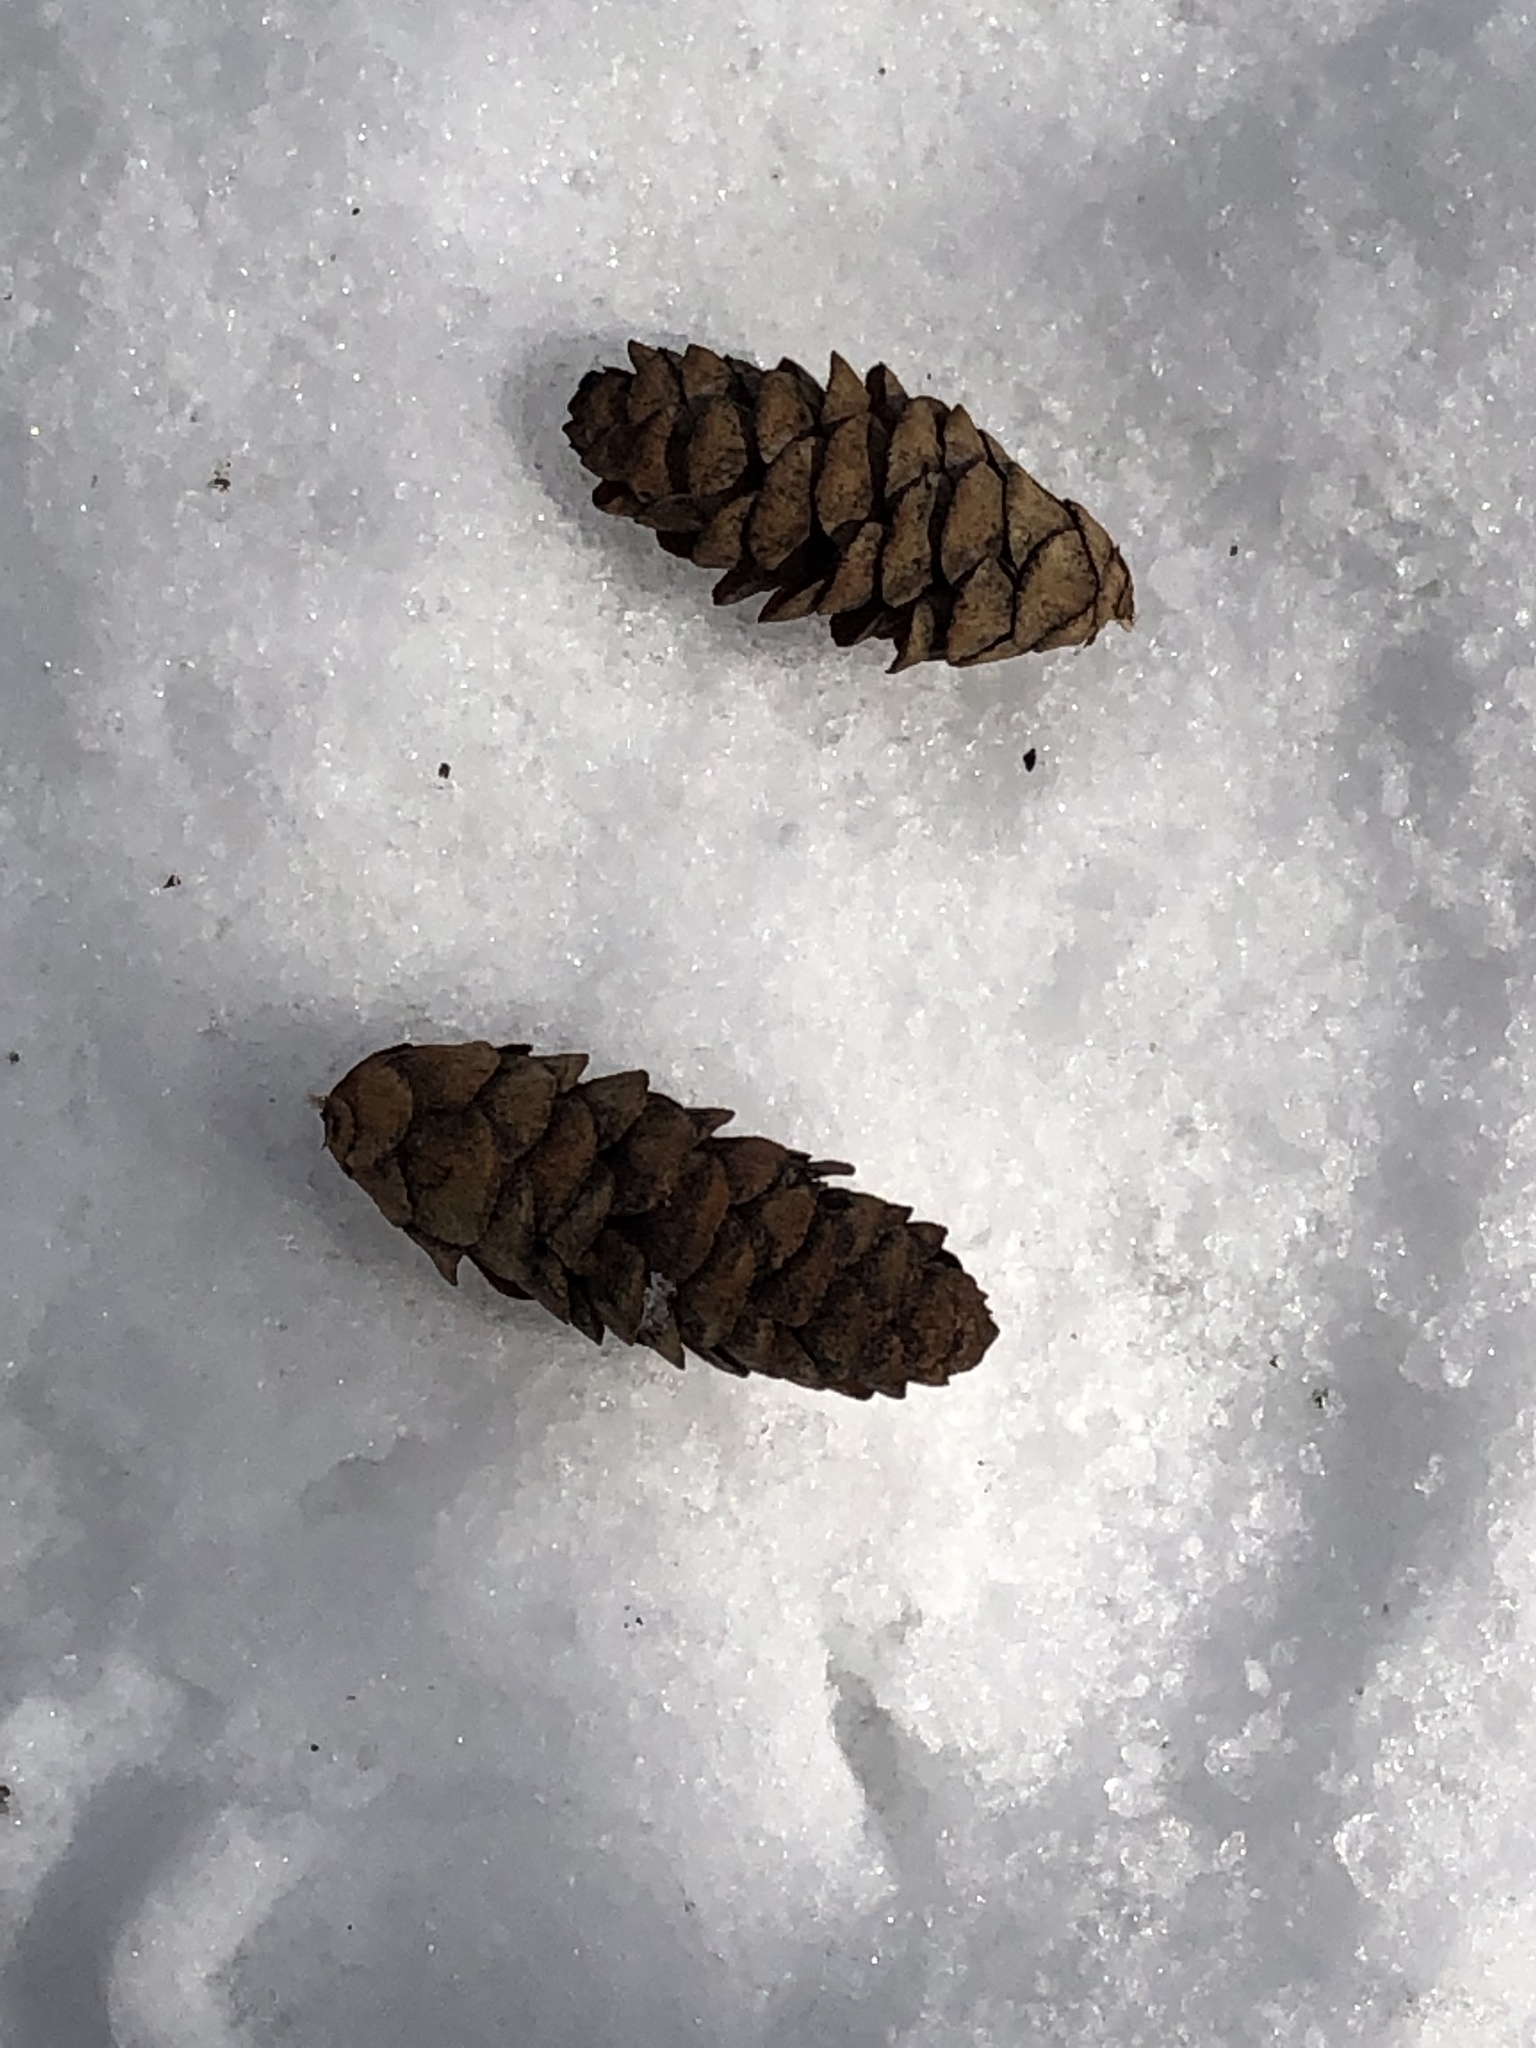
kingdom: Plantae
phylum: Tracheophyta
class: Pinopsida
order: Pinales
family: Pinaceae
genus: Picea
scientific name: Picea glauca
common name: White spruce
